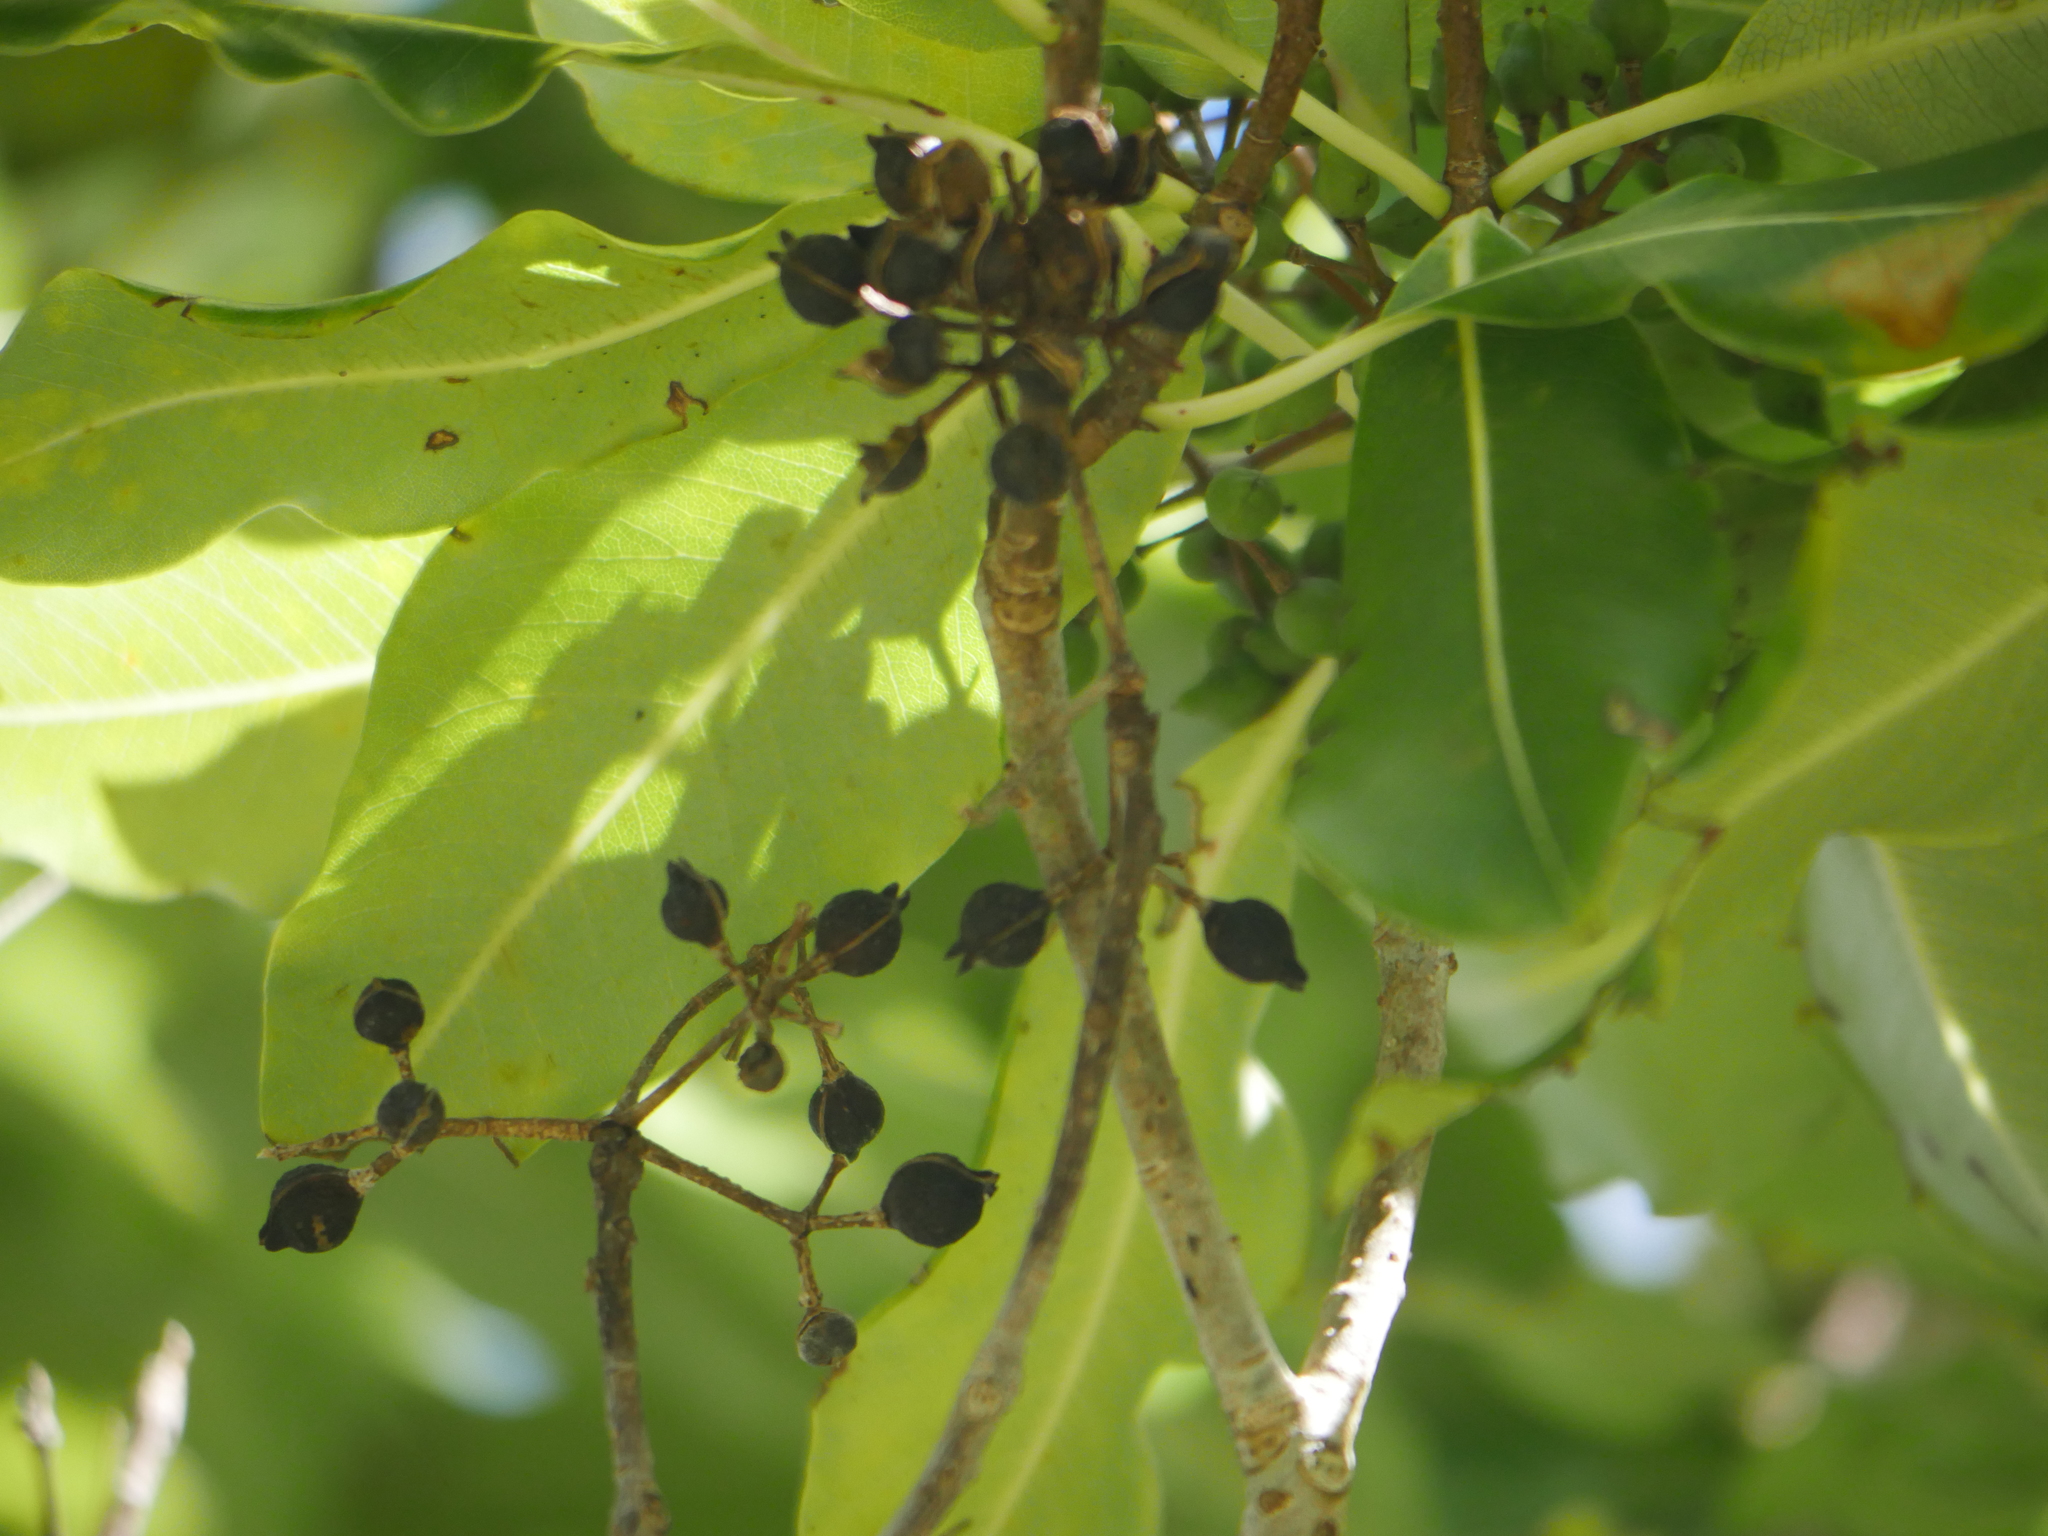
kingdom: Plantae
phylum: Tracheophyta
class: Magnoliopsida
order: Apiales
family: Pittosporaceae
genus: Pittosporum
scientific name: Pittosporum eugenioides
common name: Lemonwood
